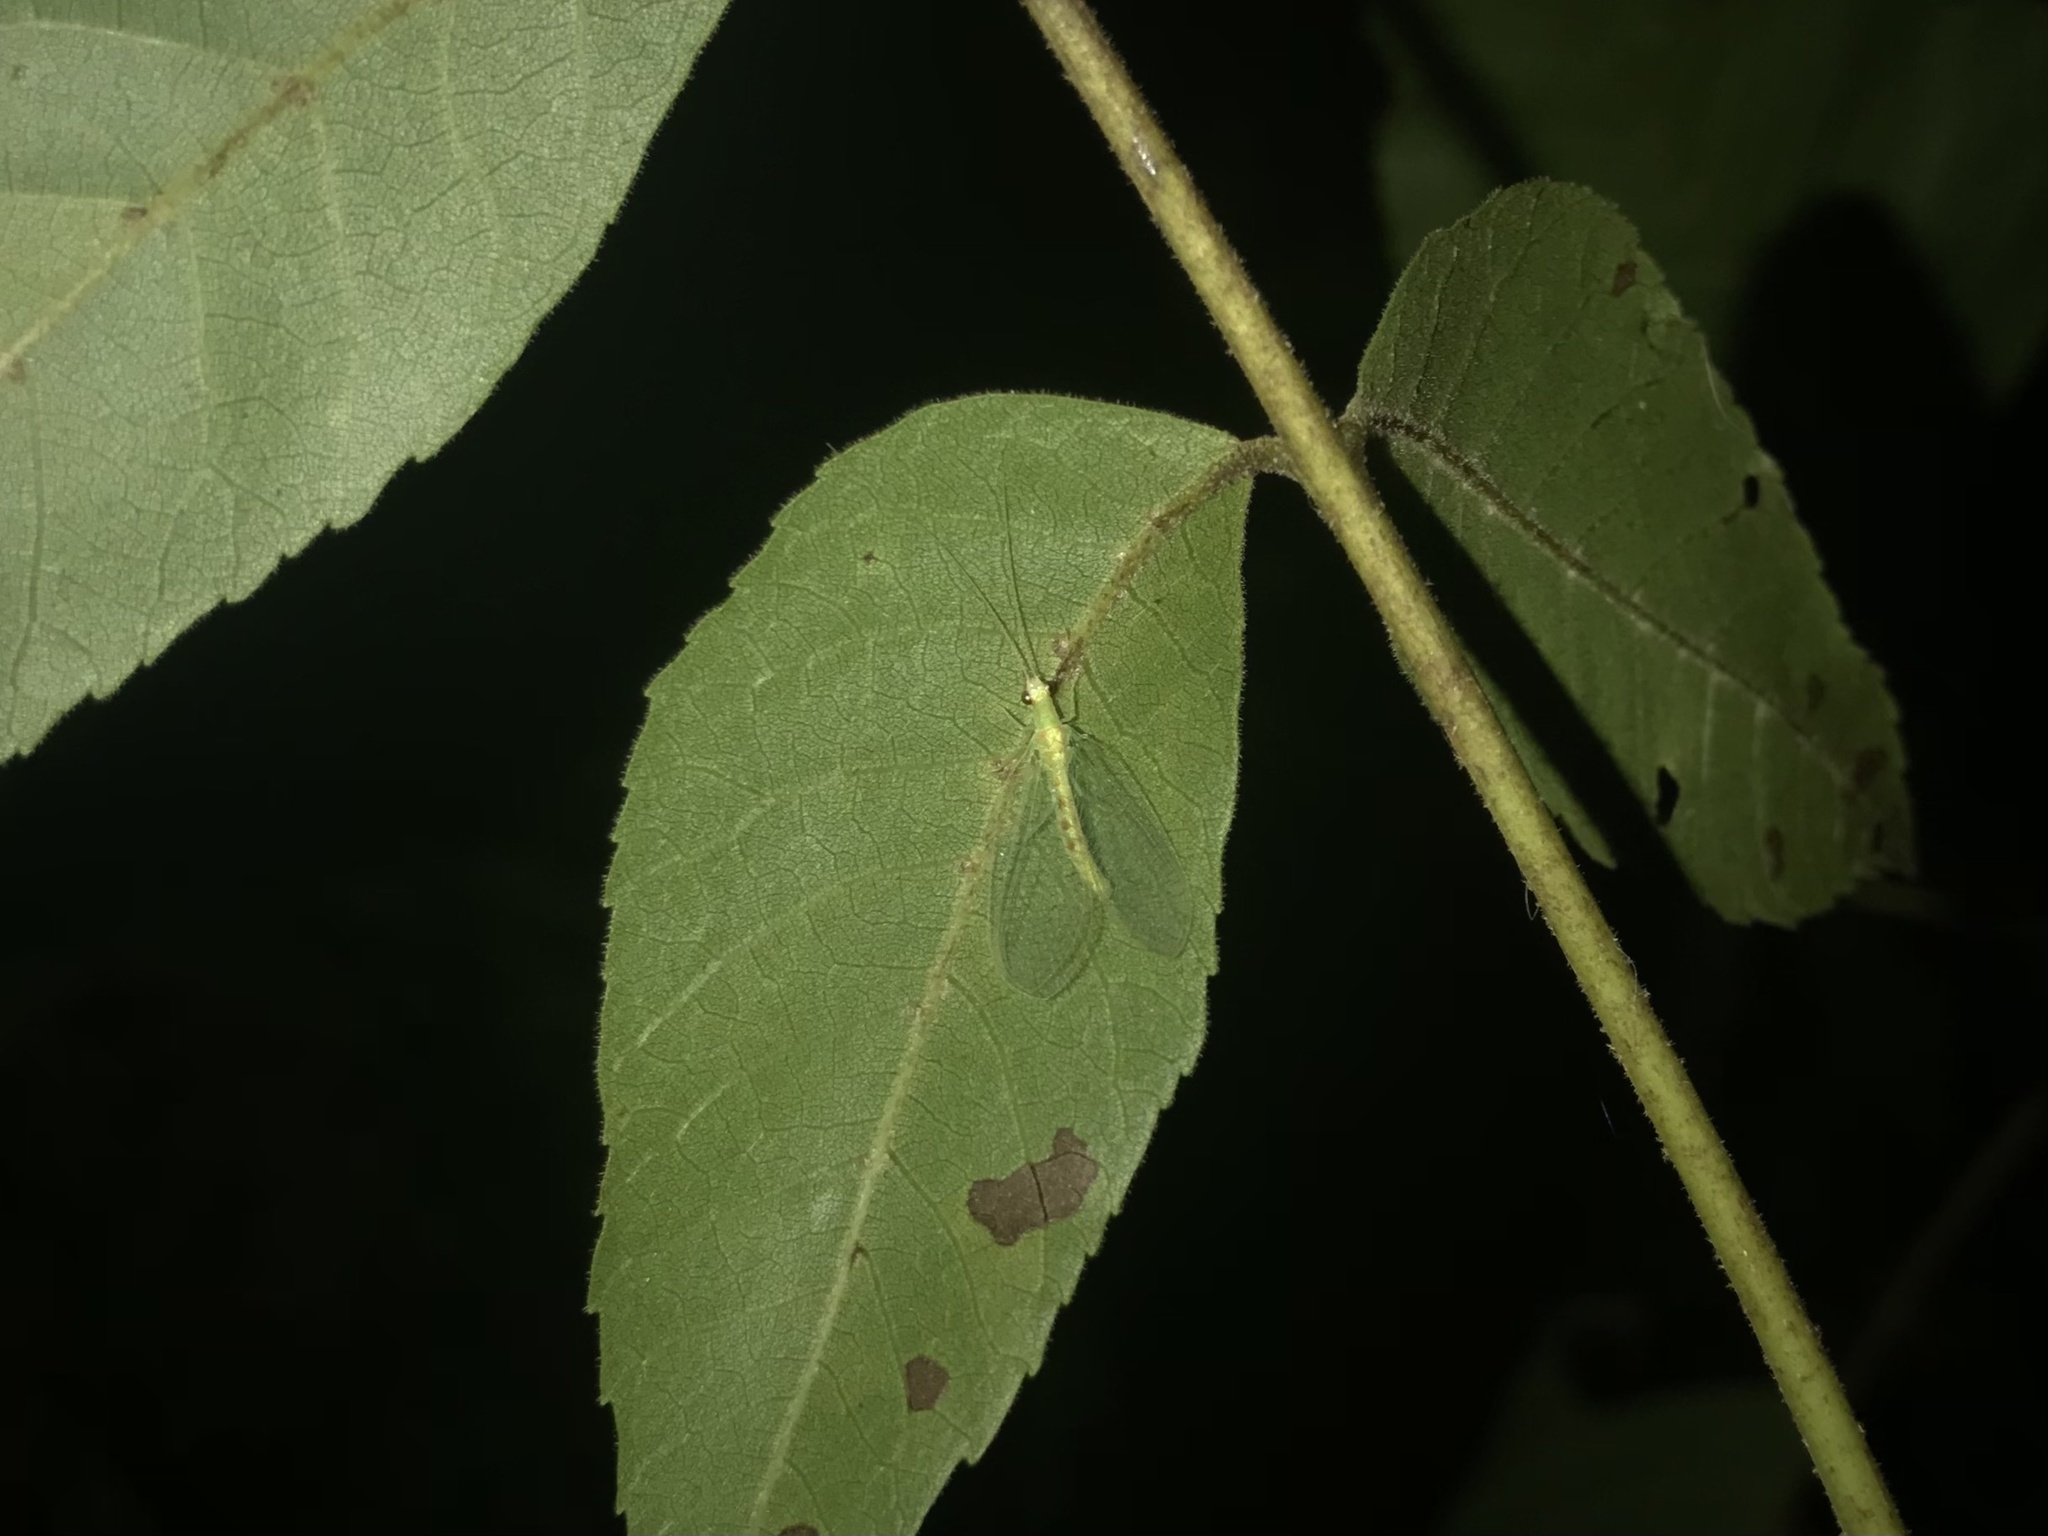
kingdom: Animalia
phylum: Arthropoda
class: Insecta
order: Neuroptera
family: Chrysopidae
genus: Chrysopa
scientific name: Chrysopa quadripunctata
